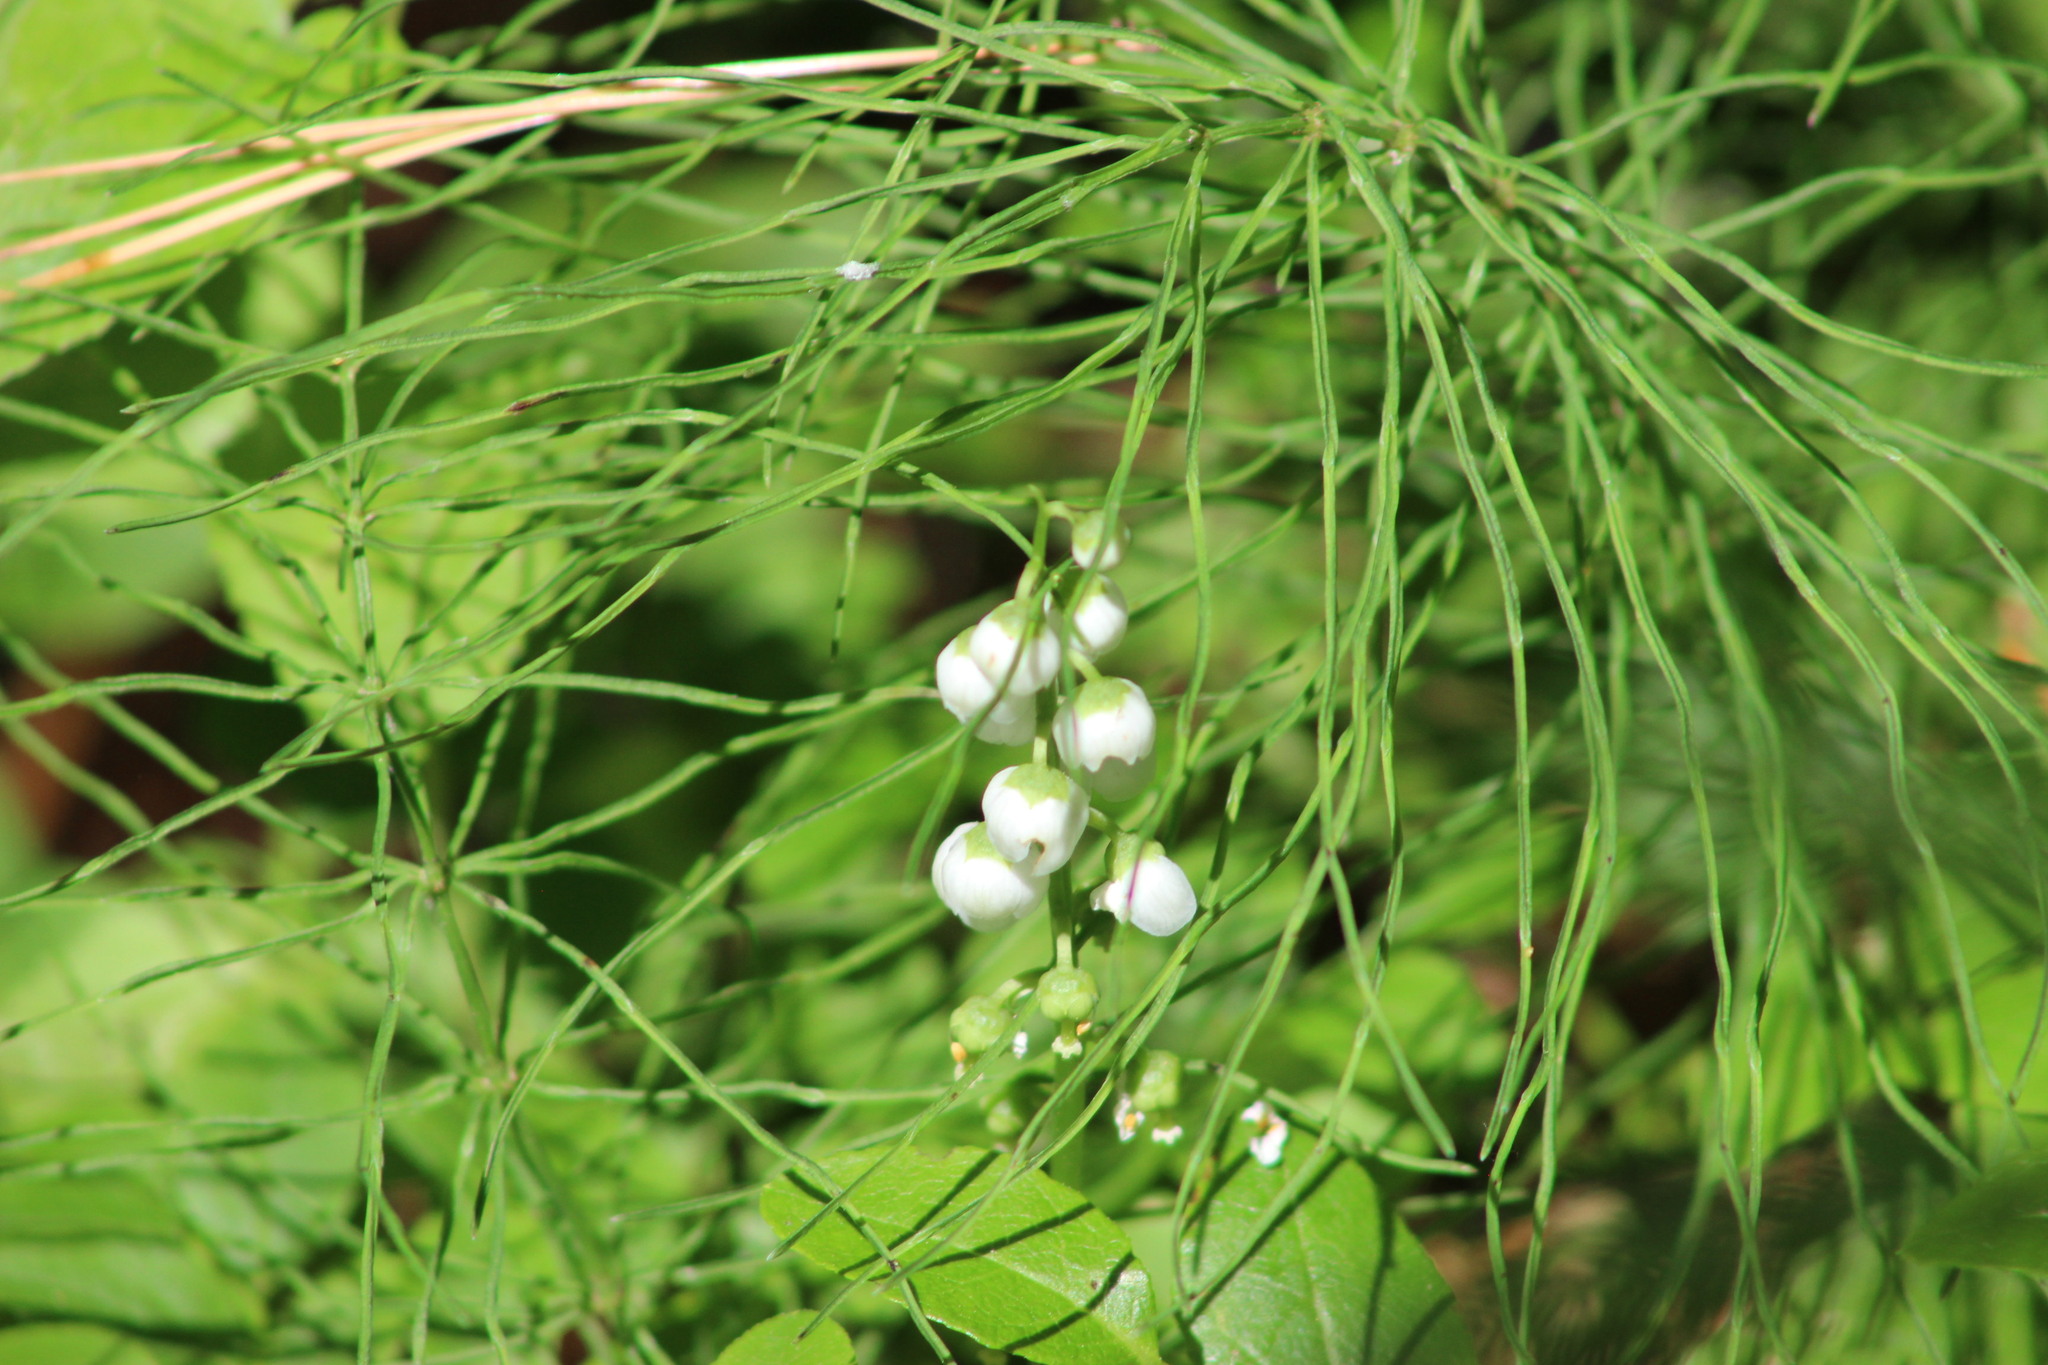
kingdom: Plantae
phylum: Tracheophyta
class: Magnoliopsida
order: Ericales
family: Ericaceae
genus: Pyrola
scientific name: Pyrola minor
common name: Common wintergreen
